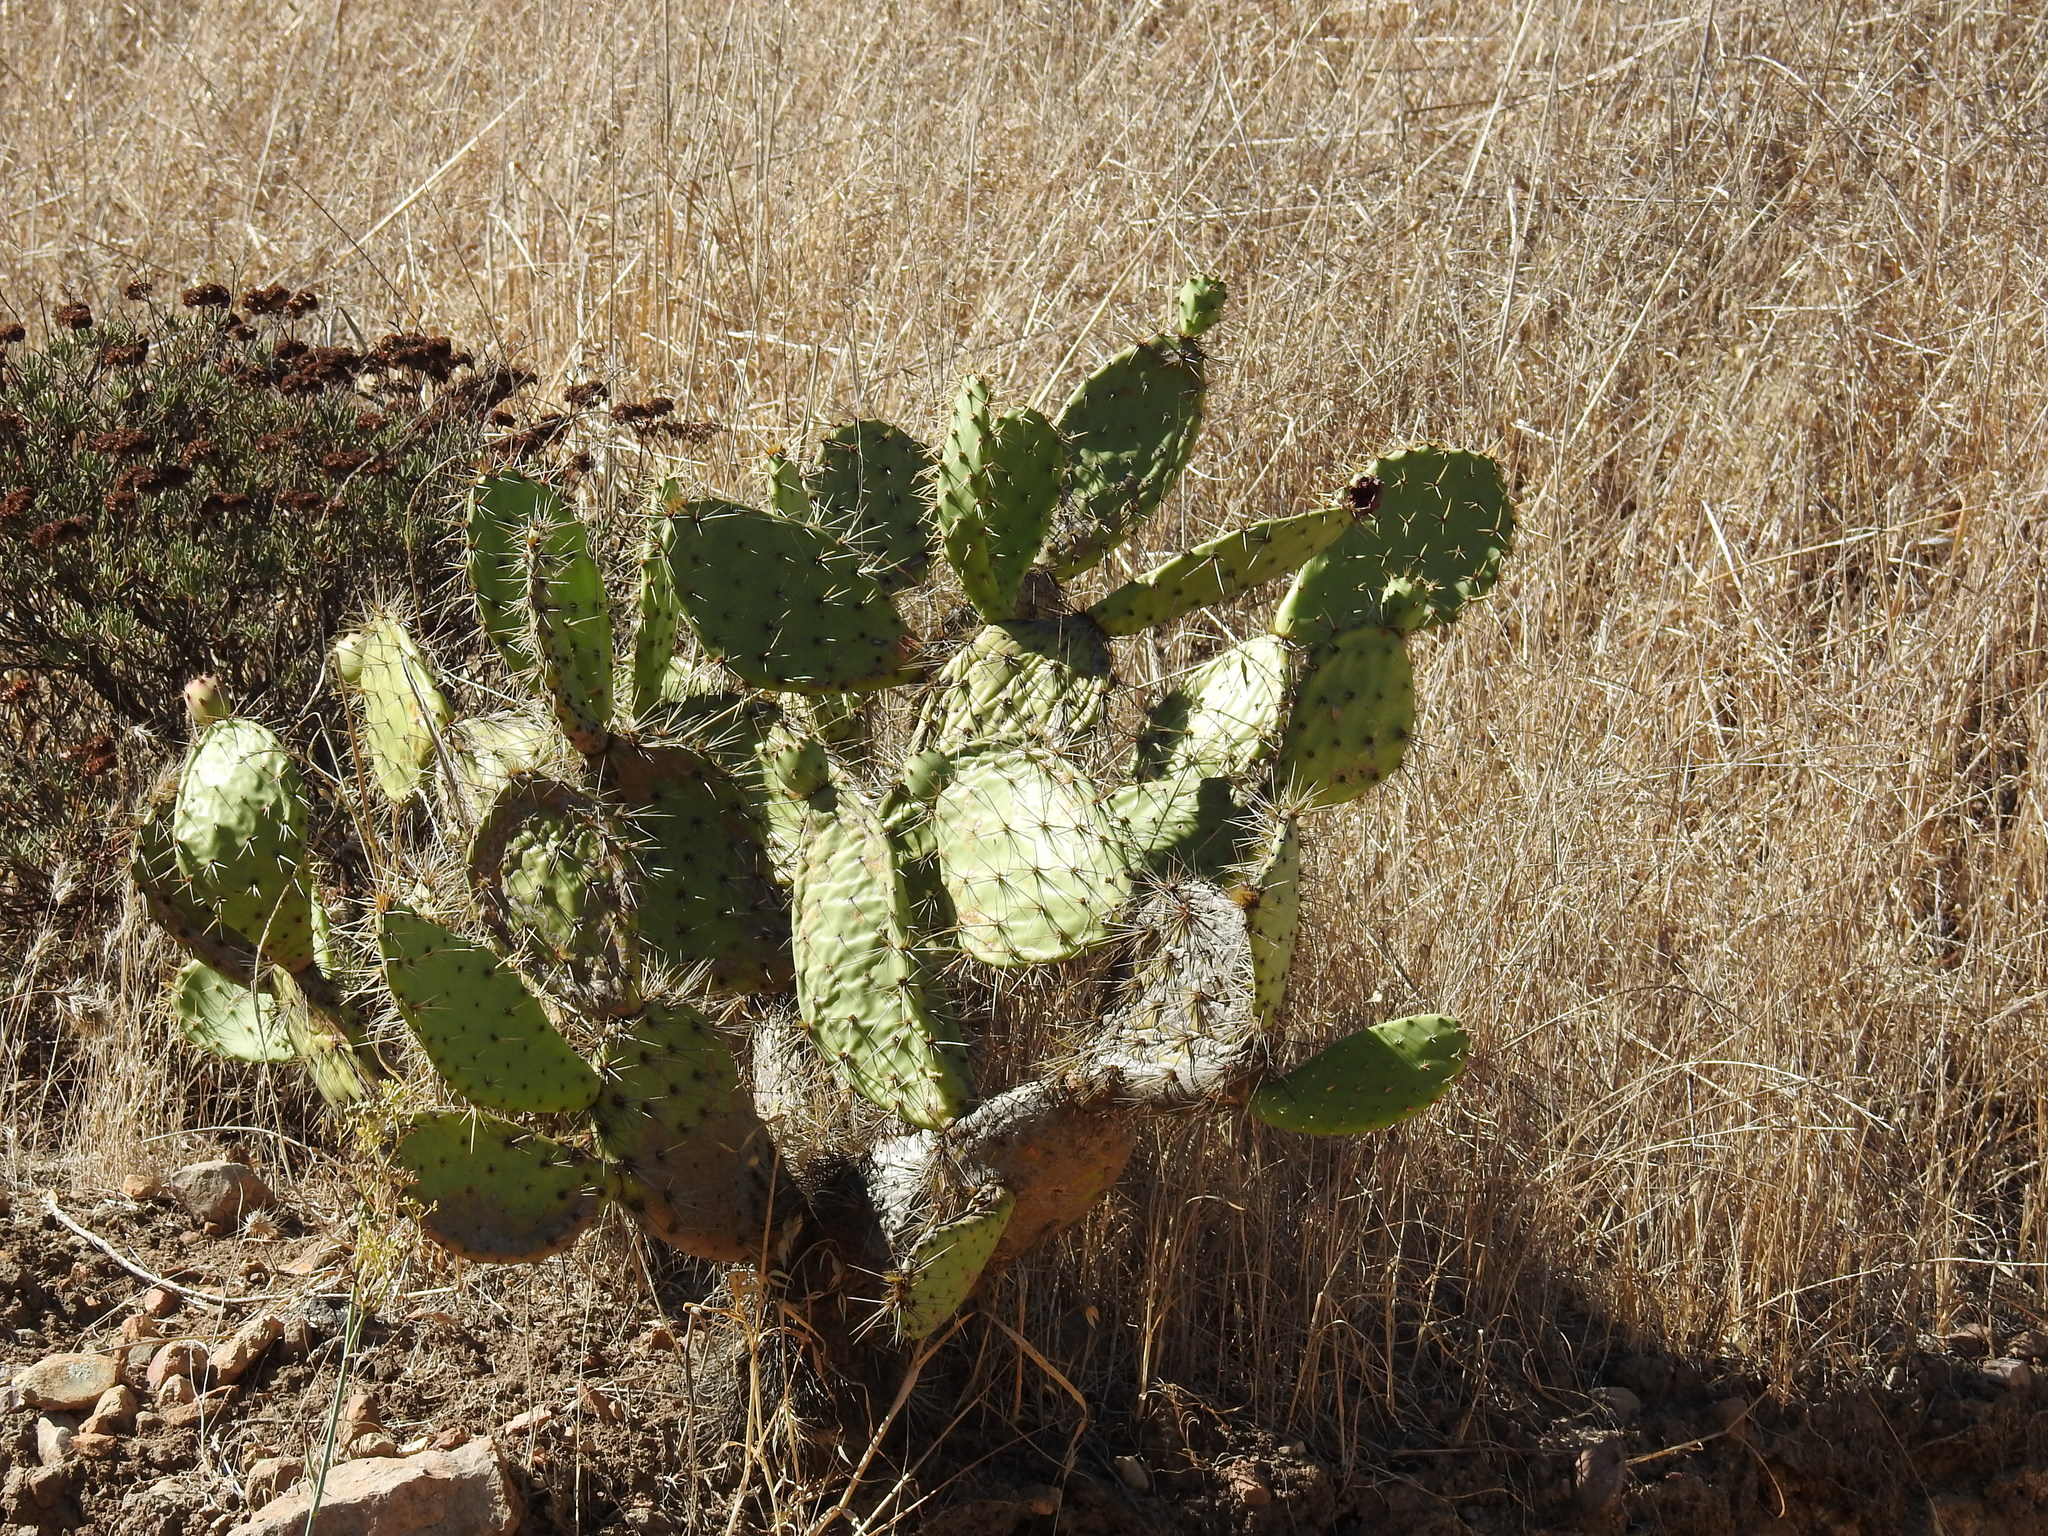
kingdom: Plantae
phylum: Tracheophyta
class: Magnoliopsida
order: Caryophyllales
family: Cactaceae
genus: Opuntia
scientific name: Opuntia littoralis
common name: Coastal prickly-pear
